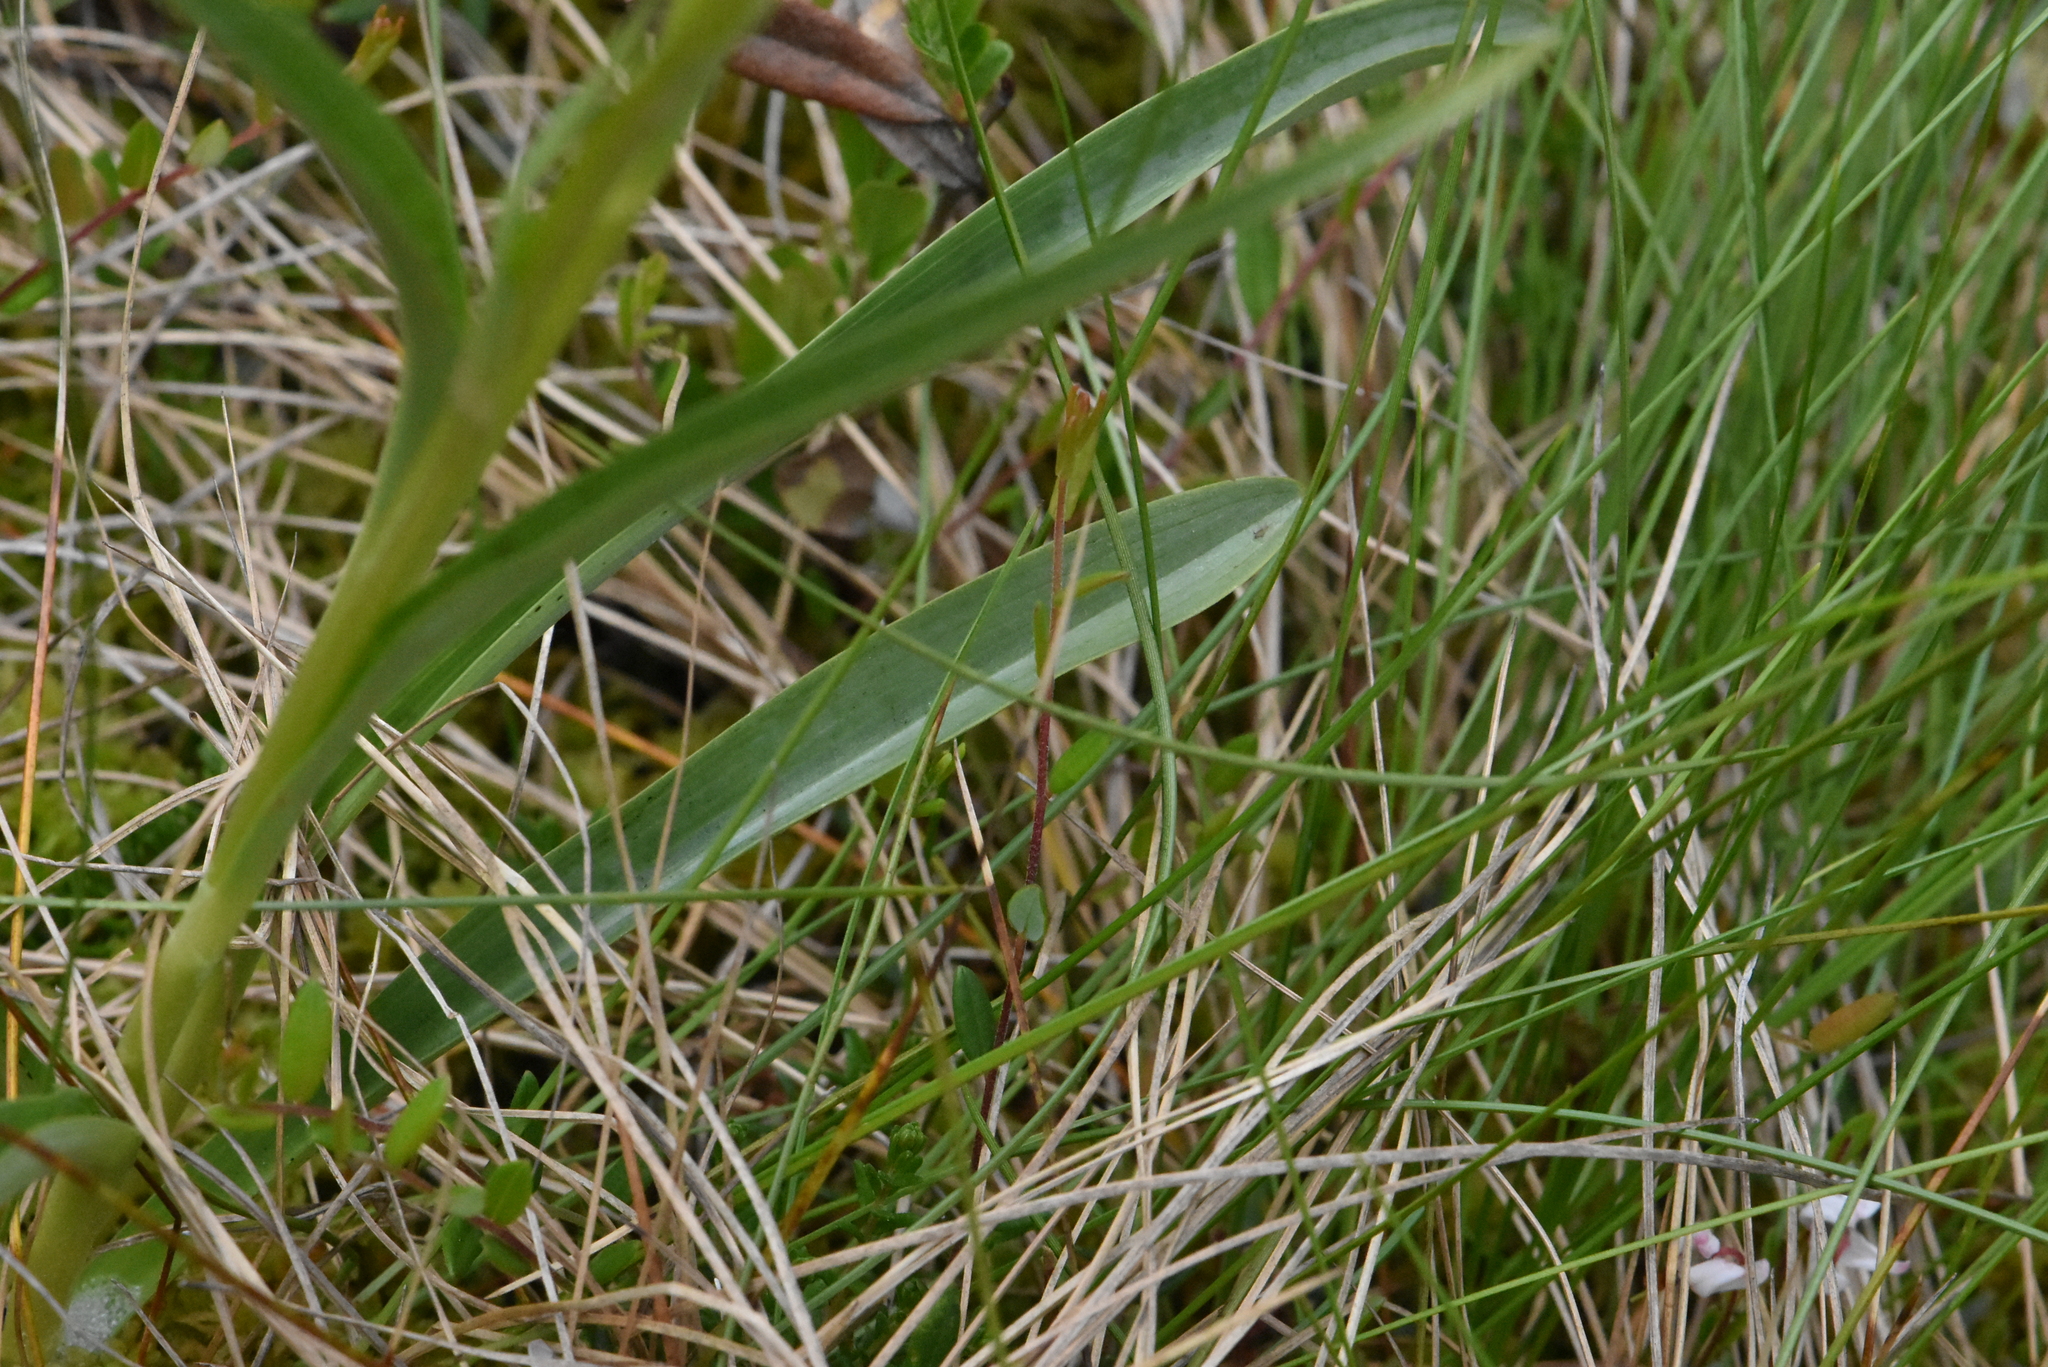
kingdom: Plantae
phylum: Tracheophyta
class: Liliopsida
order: Asparagales
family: Orchidaceae
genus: Dactylorhiza
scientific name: Dactylorhiza maculata
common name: Heath spotted-orchid
